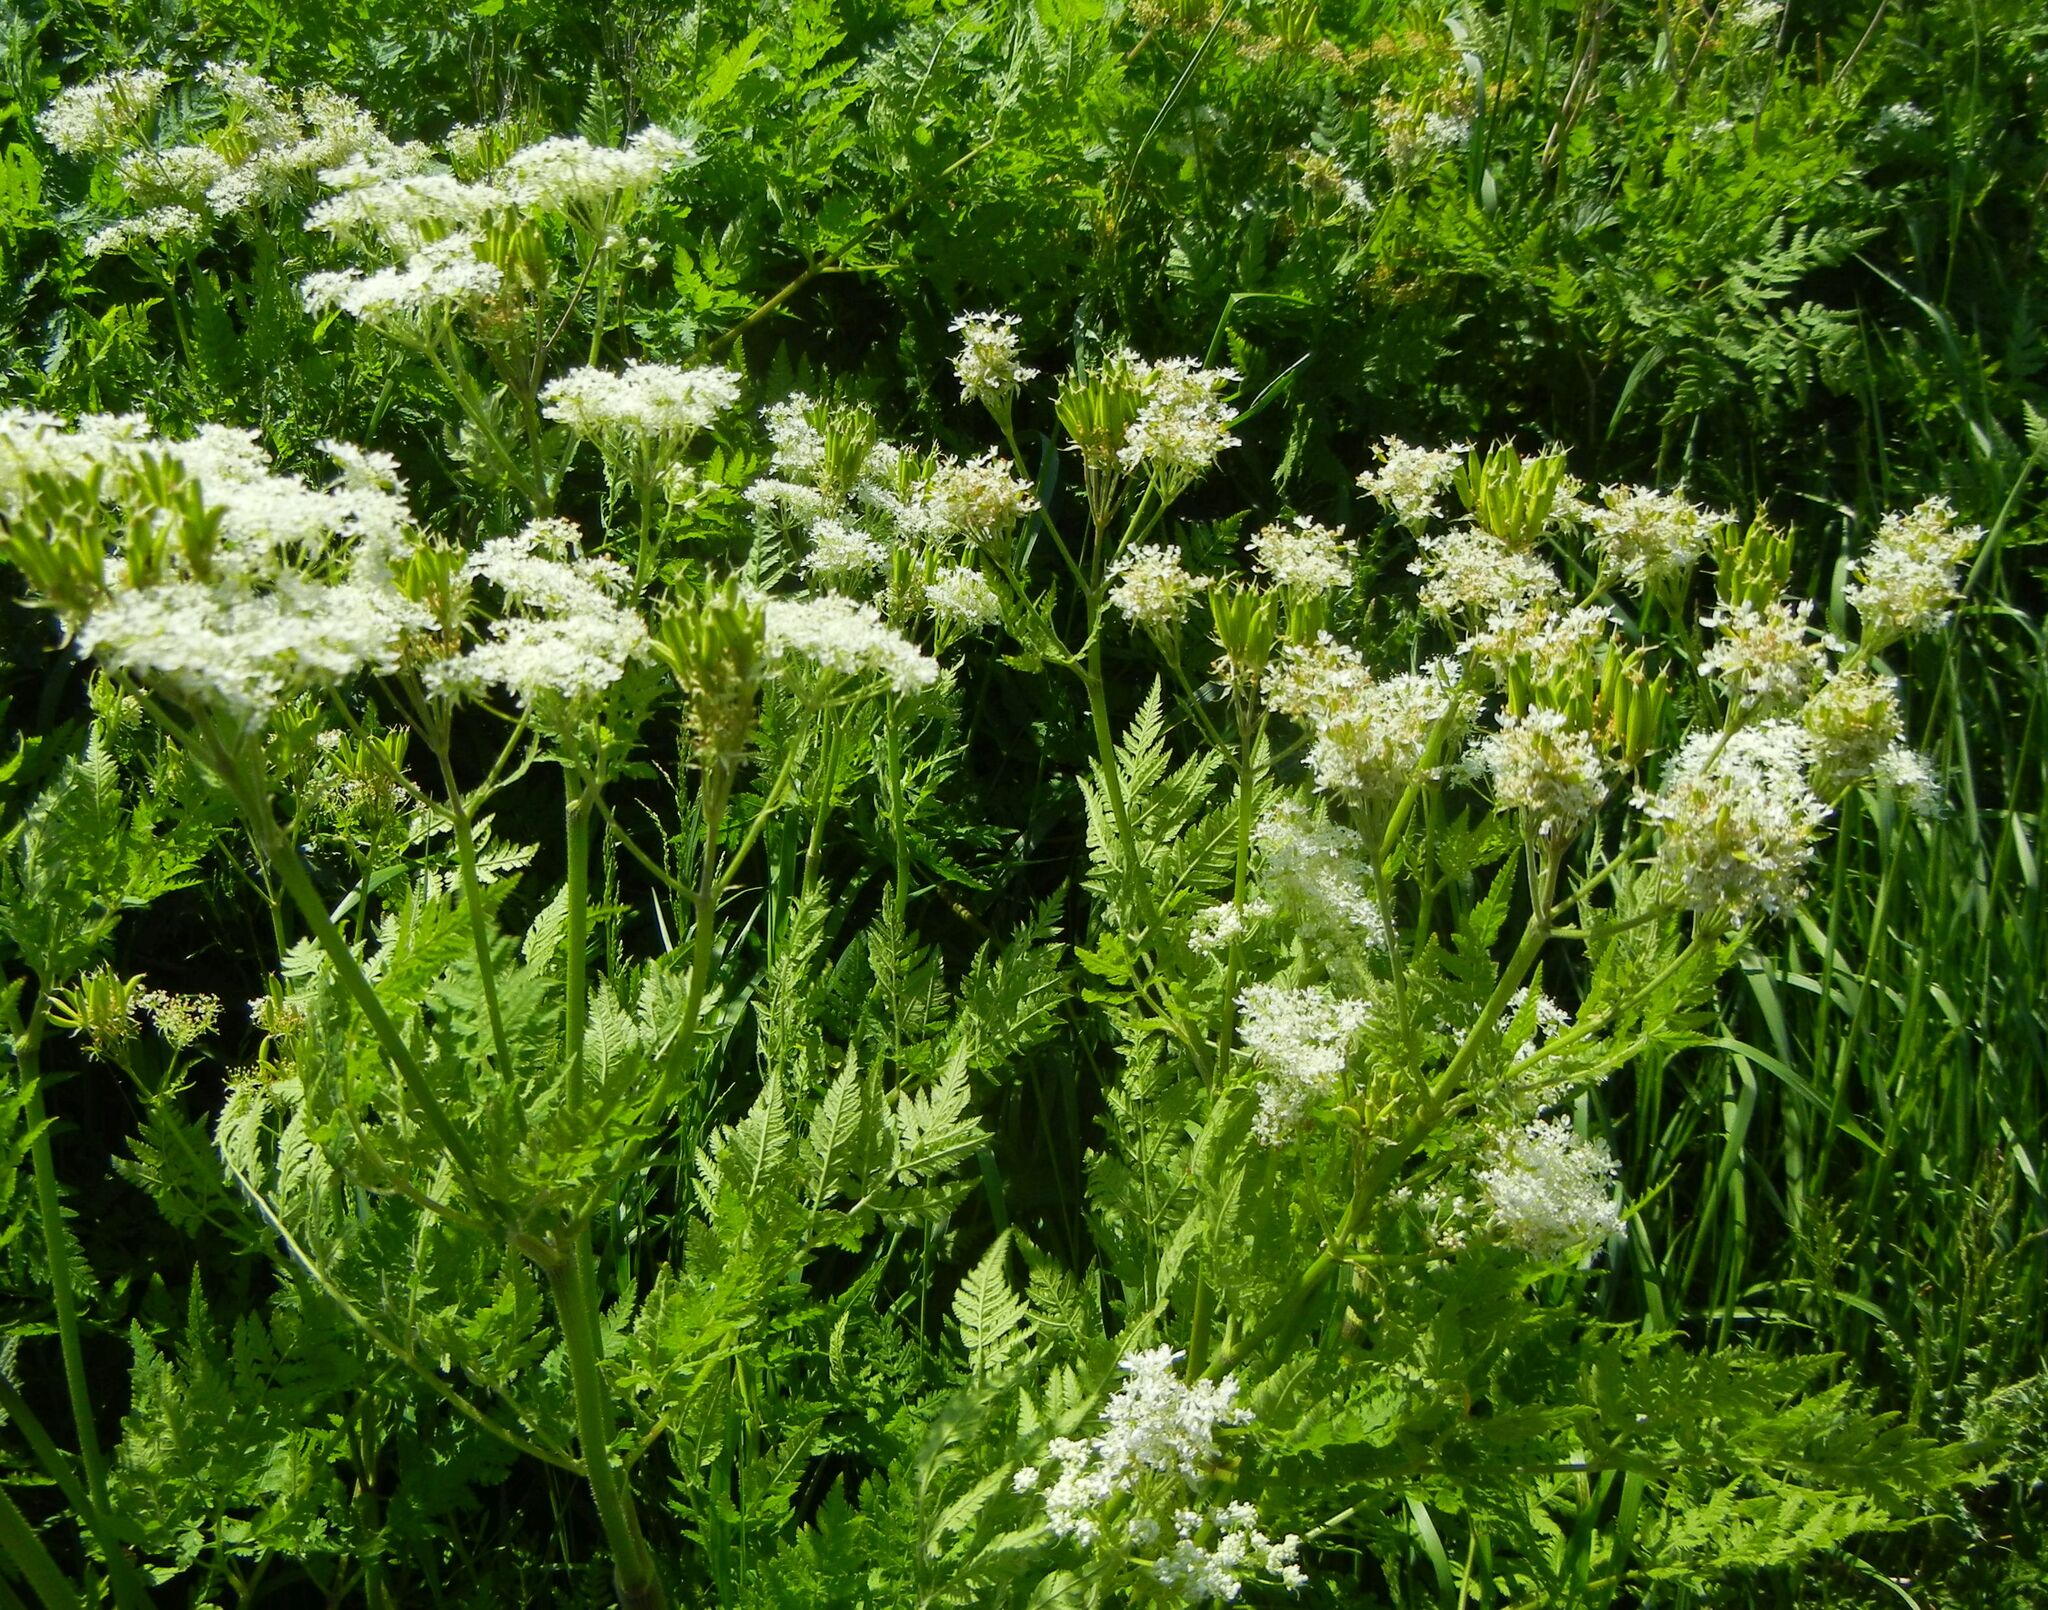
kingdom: Plantae
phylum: Tracheophyta
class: Magnoliopsida
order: Apiales
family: Apiaceae
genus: Myrrhis
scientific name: Myrrhis odorata
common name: Sweet cicely
